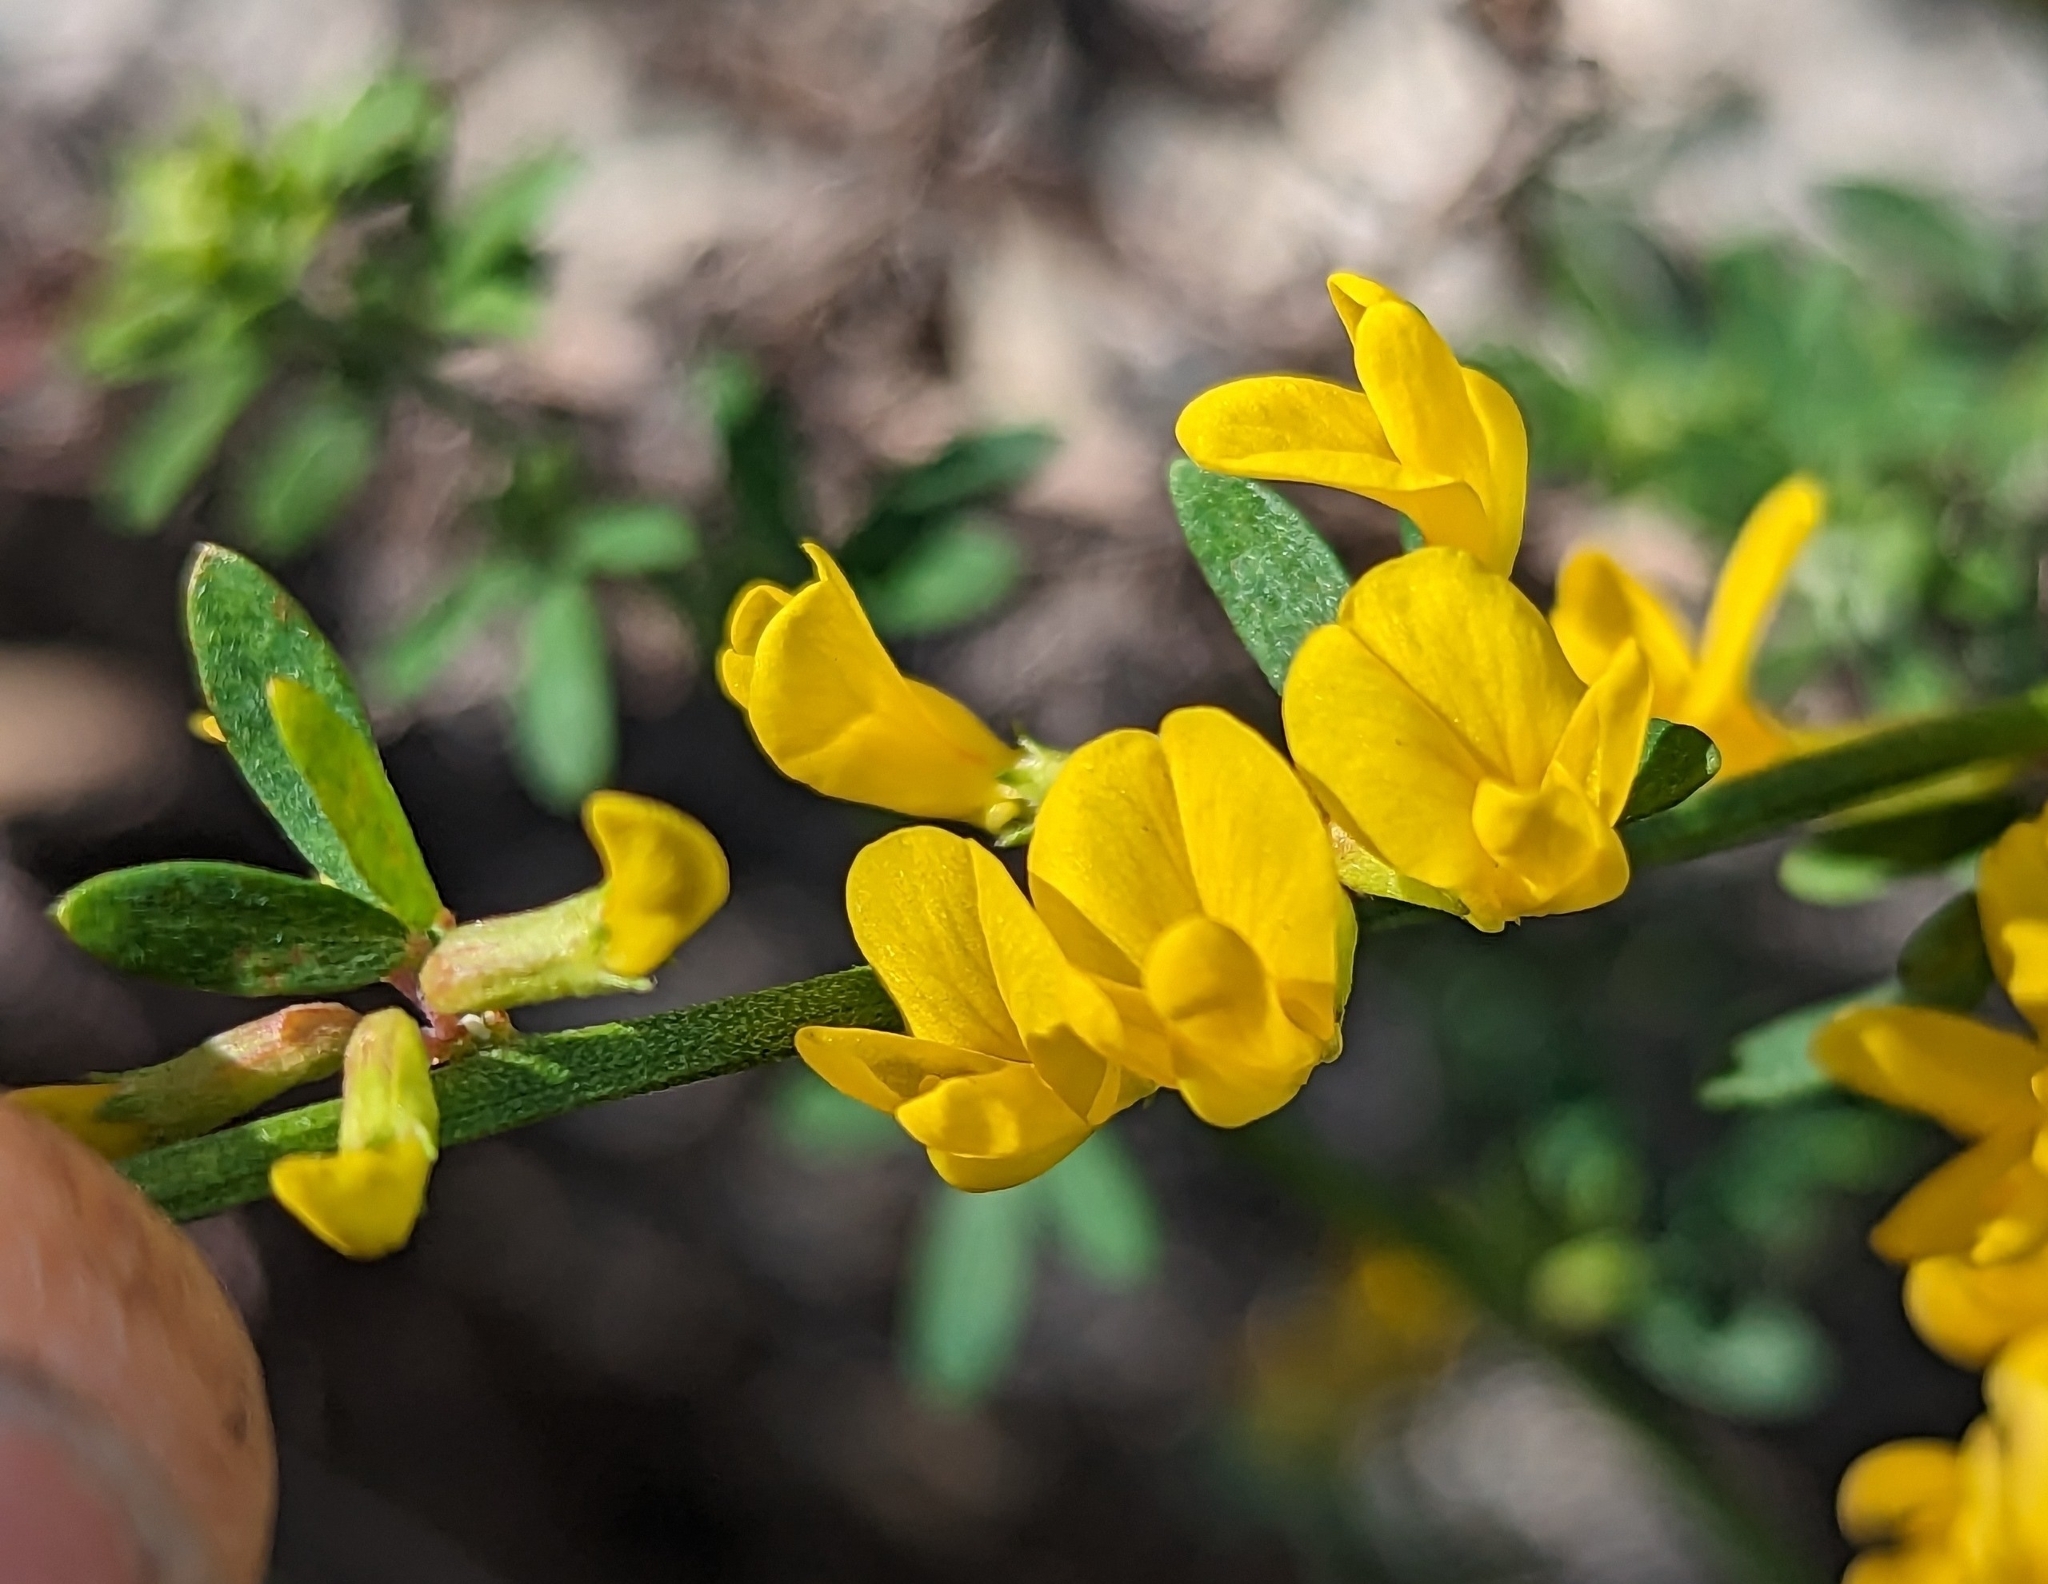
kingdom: Plantae
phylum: Tracheophyta
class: Magnoliopsida
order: Fabales
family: Fabaceae
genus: Acmispon
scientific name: Acmispon glaber
